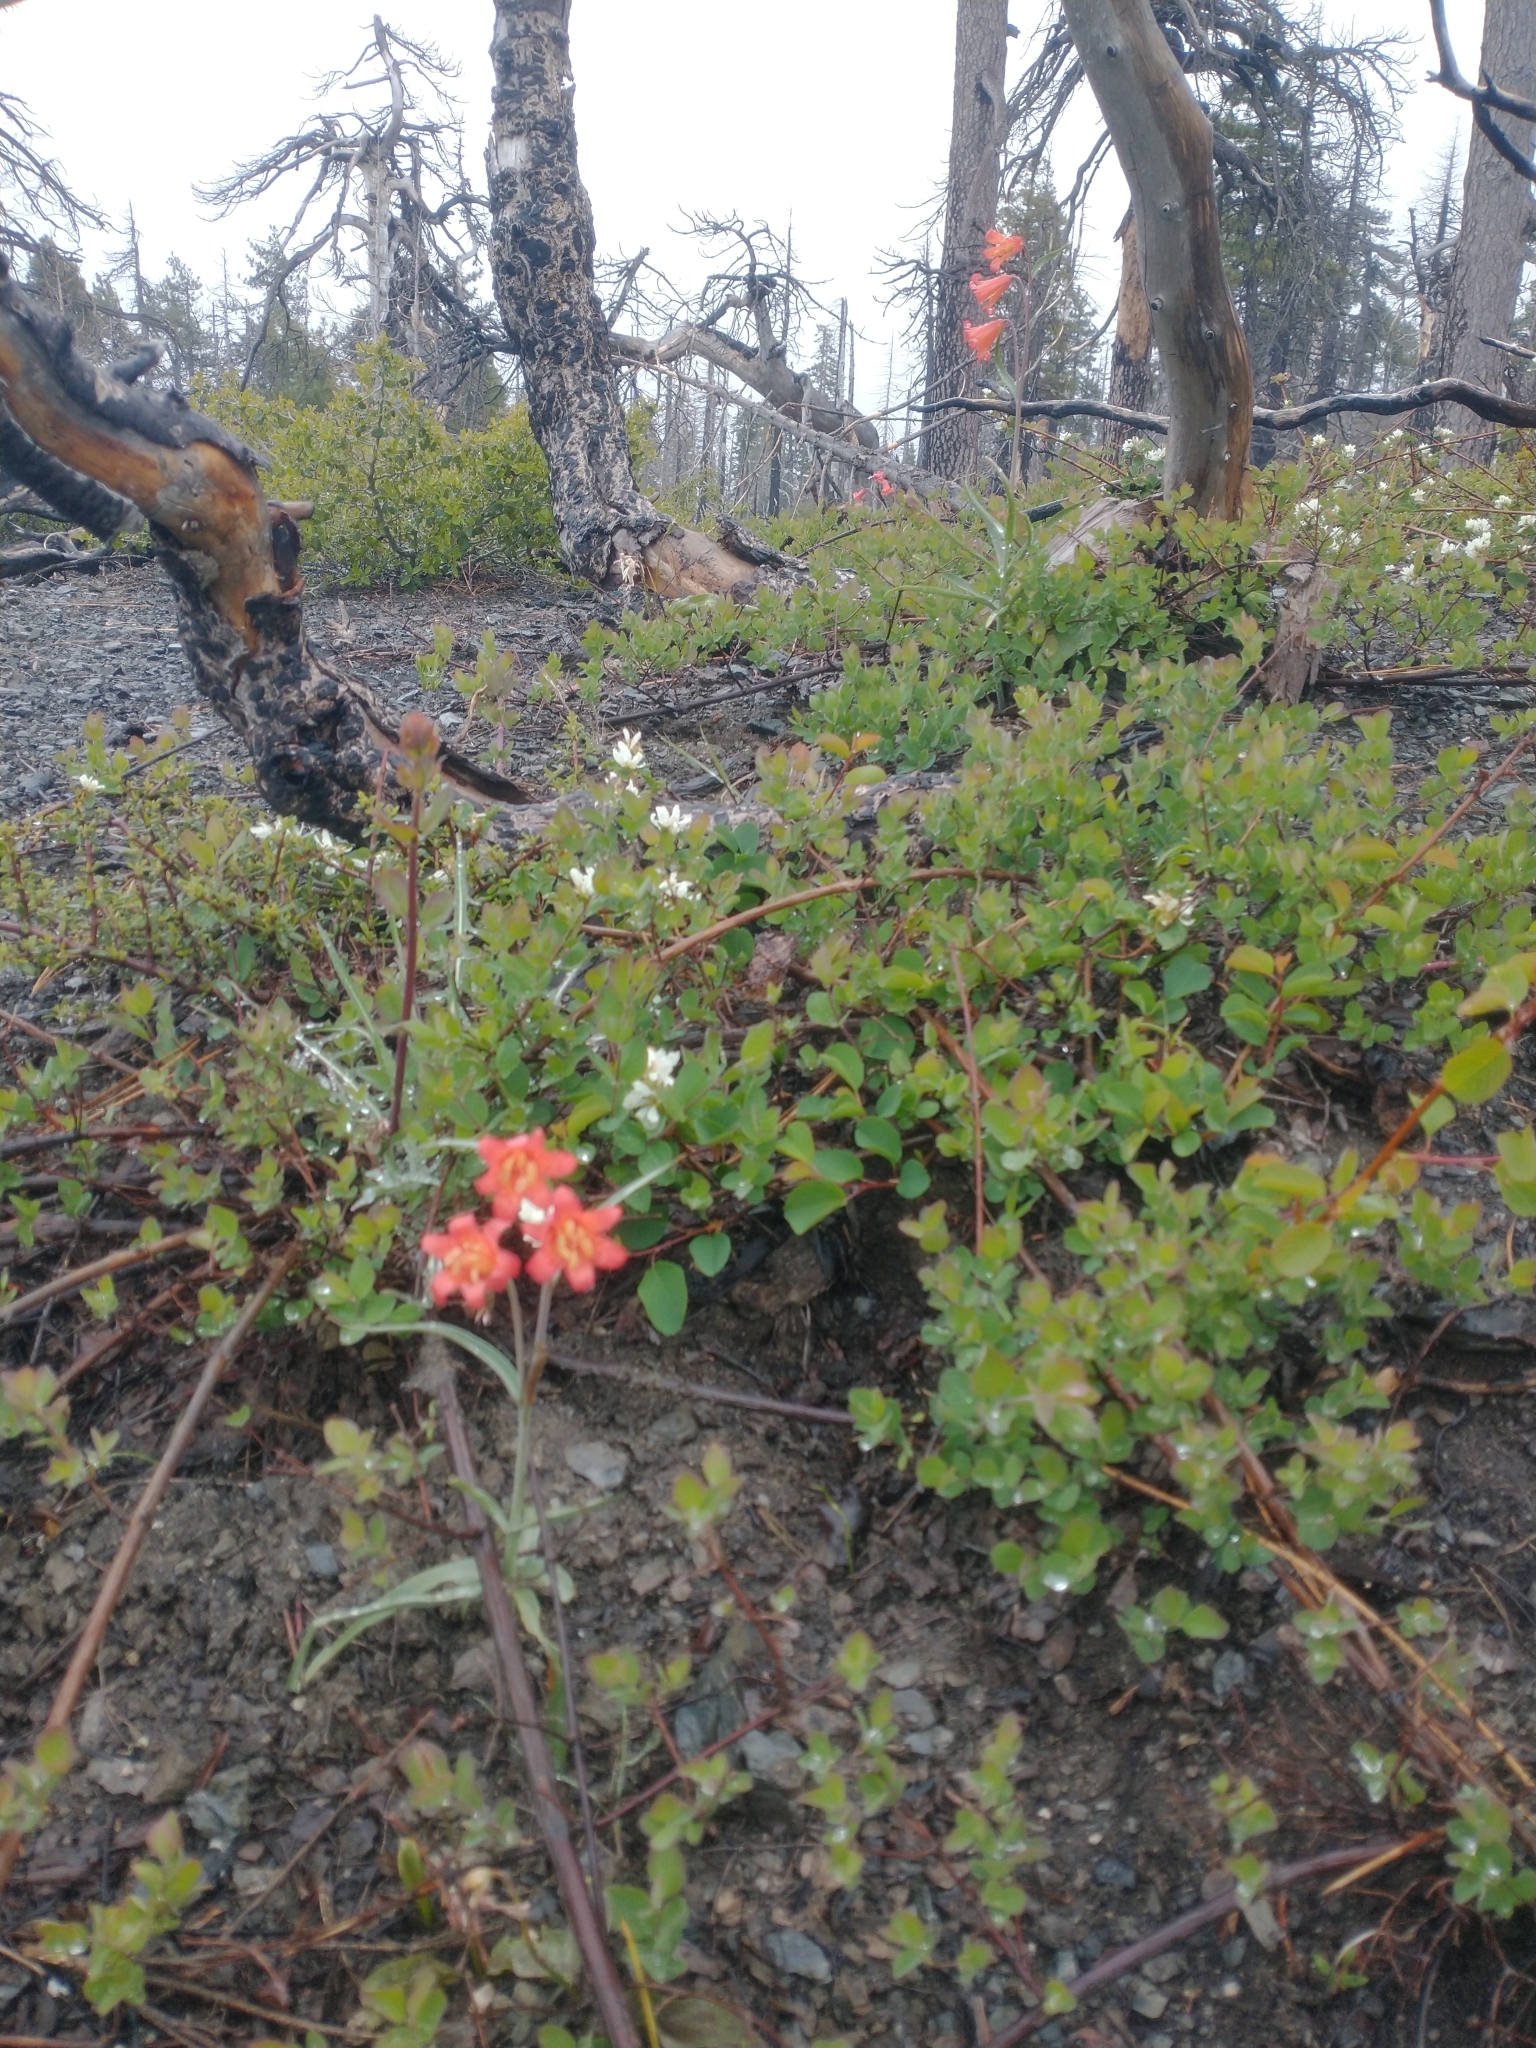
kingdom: Plantae
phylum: Tracheophyta
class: Liliopsida
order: Liliales
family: Liliaceae
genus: Fritillaria
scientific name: Fritillaria recurva
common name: Scarlet fritillary
